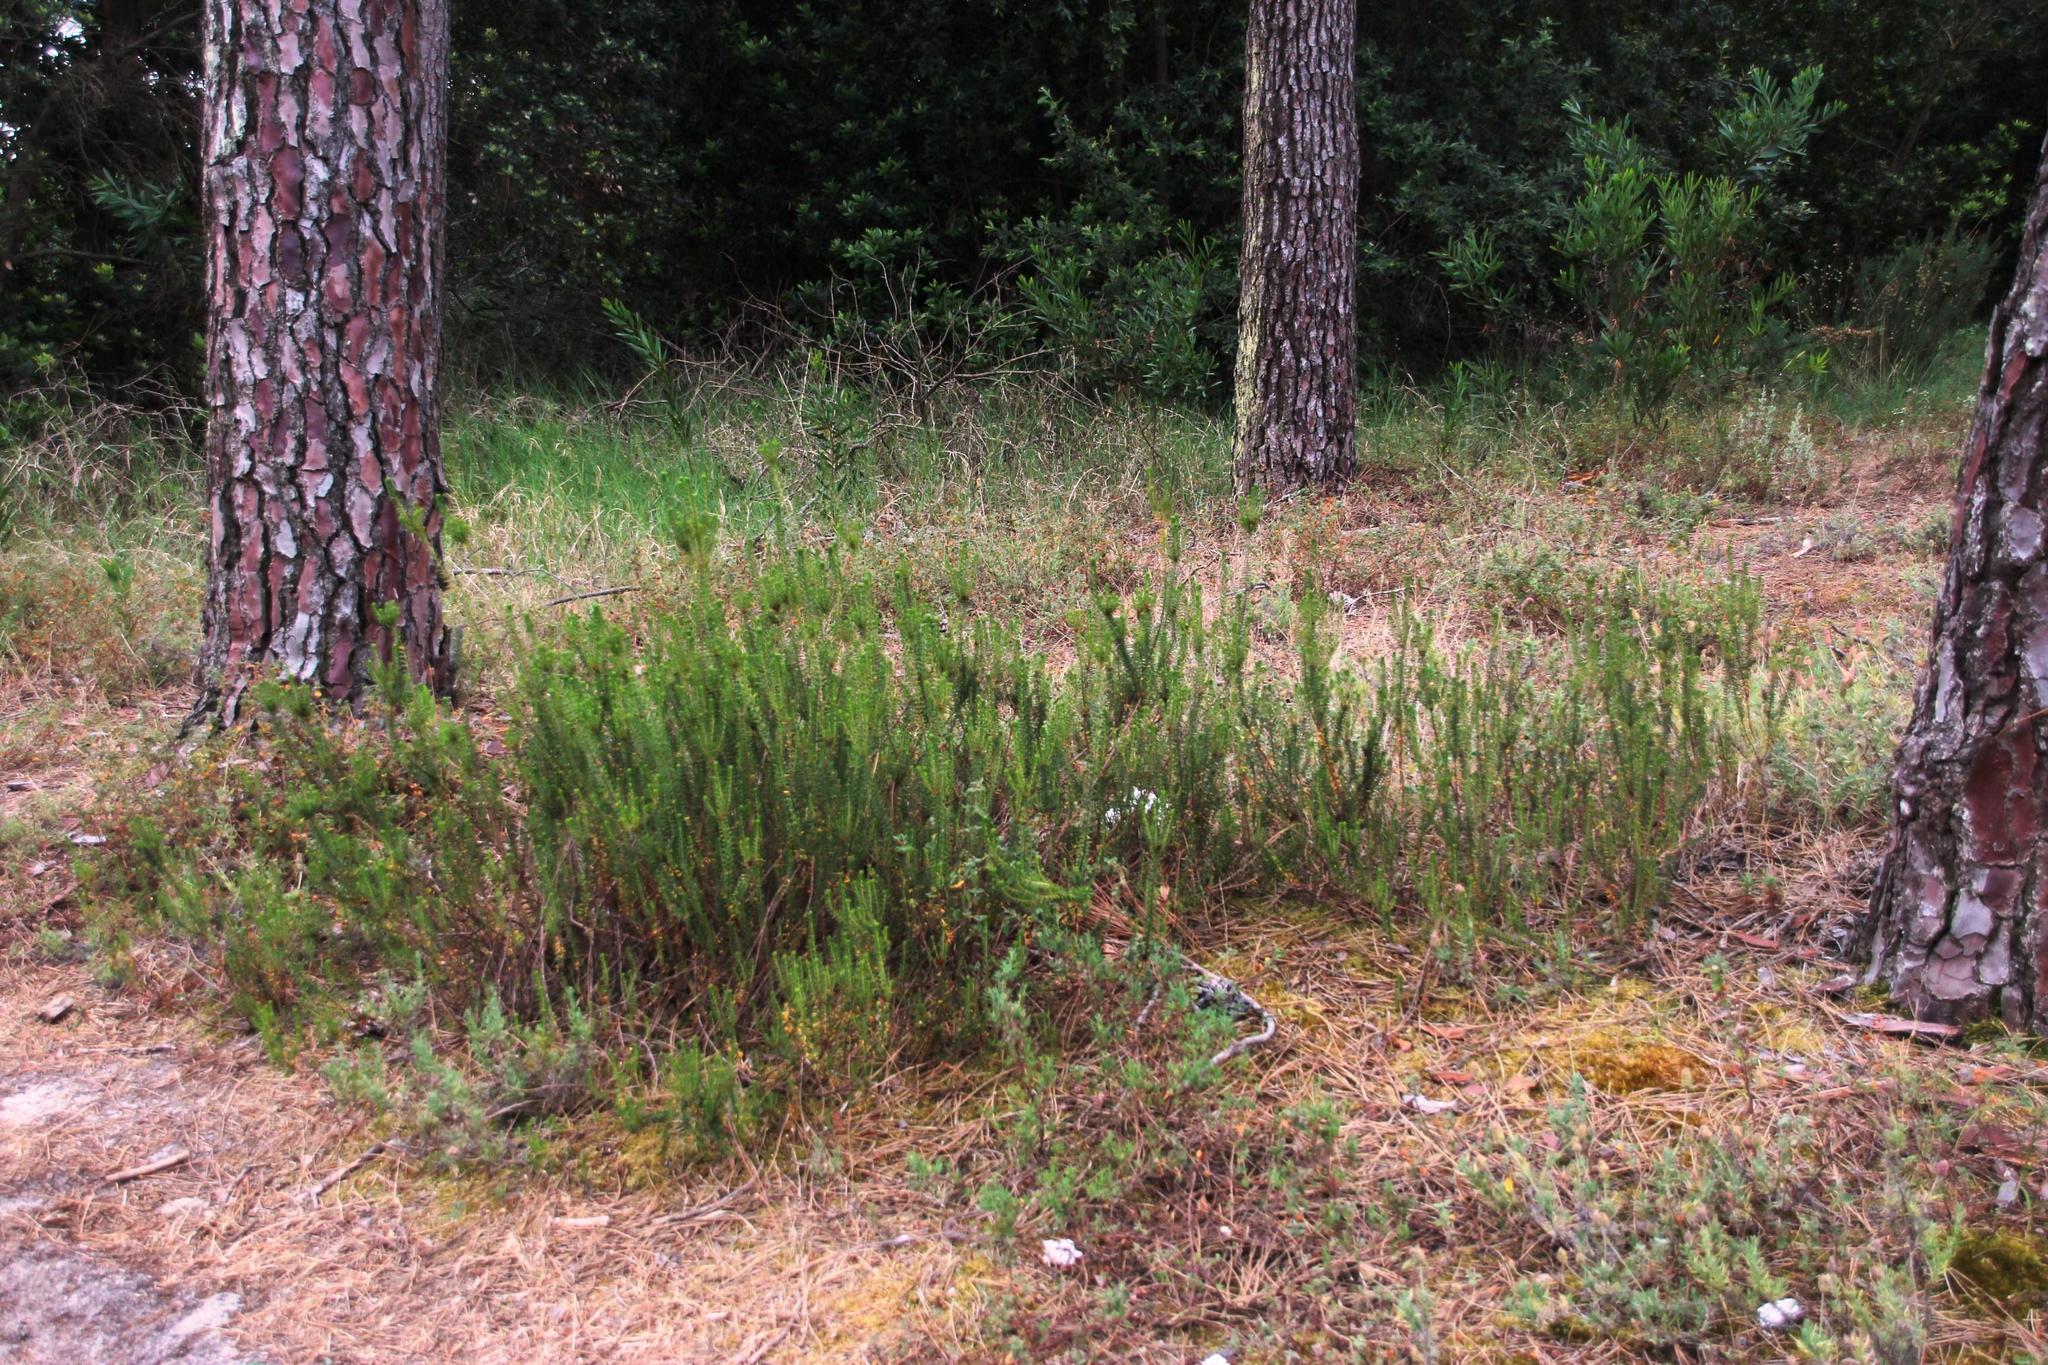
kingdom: Plantae
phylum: Tracheophyta
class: Magnoliopsida
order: Ericales
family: Ericaceae
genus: Corema
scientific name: Corema album
